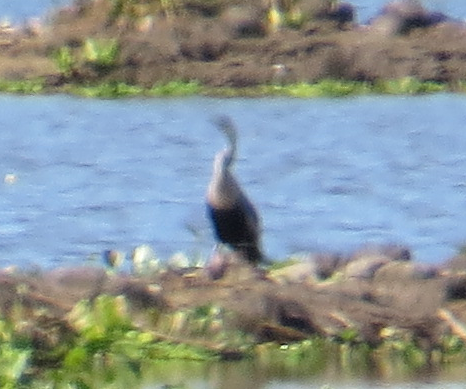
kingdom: Animalia
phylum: Chordata
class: Aves
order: Suliformes
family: Phalacrocoracidae
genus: Phalacrocorax
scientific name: Phalacrocorax brasilianus
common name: Neotropic cormorant
